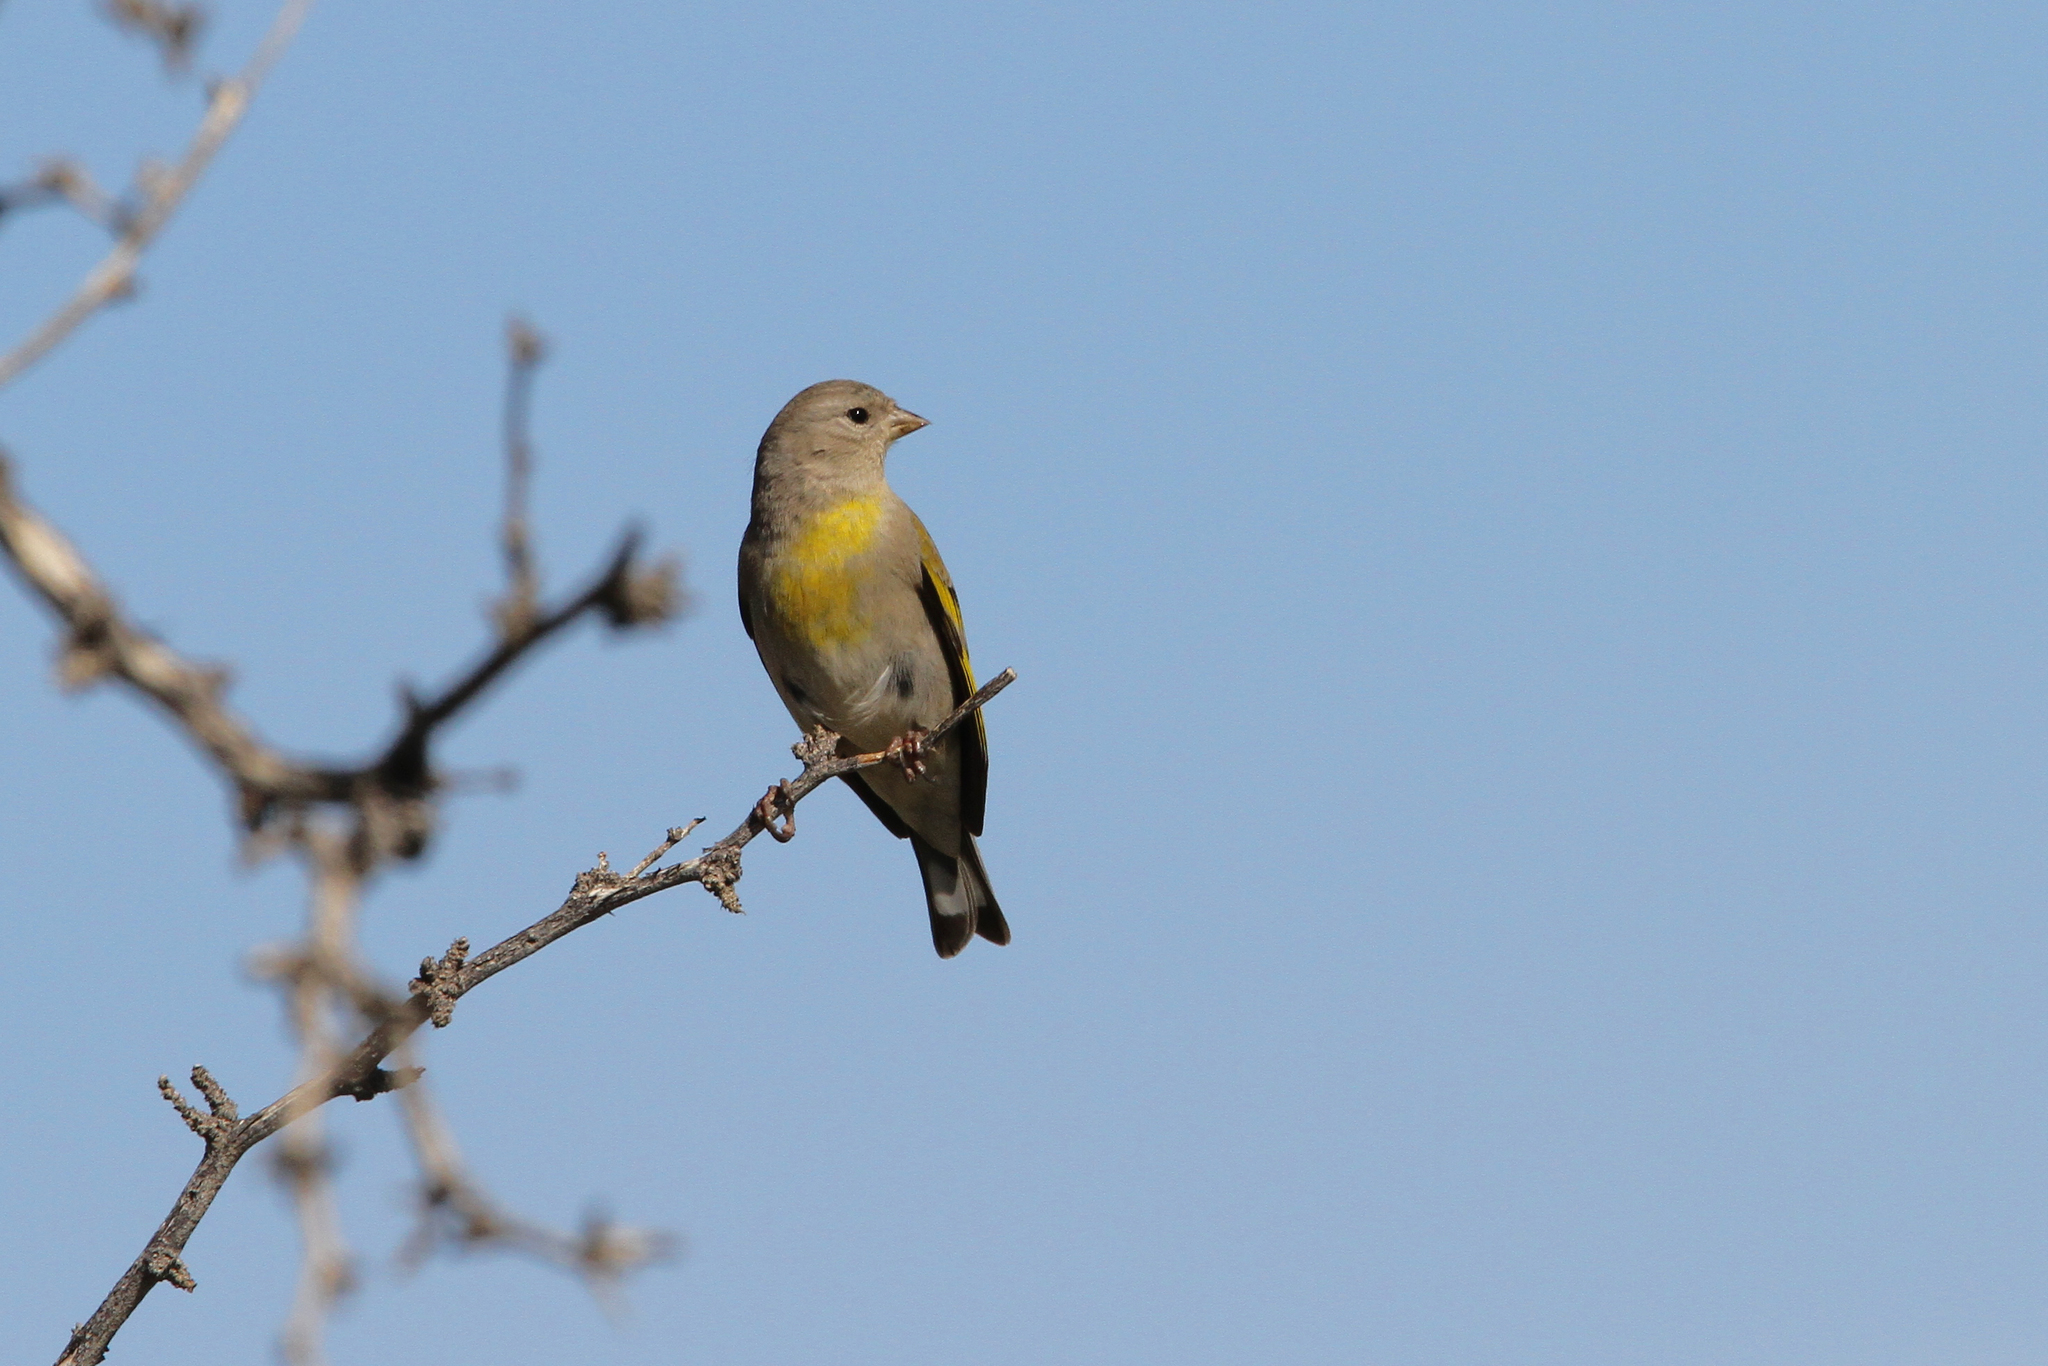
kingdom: Animalia
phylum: Chordata
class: Aves
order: Passeriformes
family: Fringillidae
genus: Spinus
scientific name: Spinus lawrencei
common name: Lawrence's goldfinch
